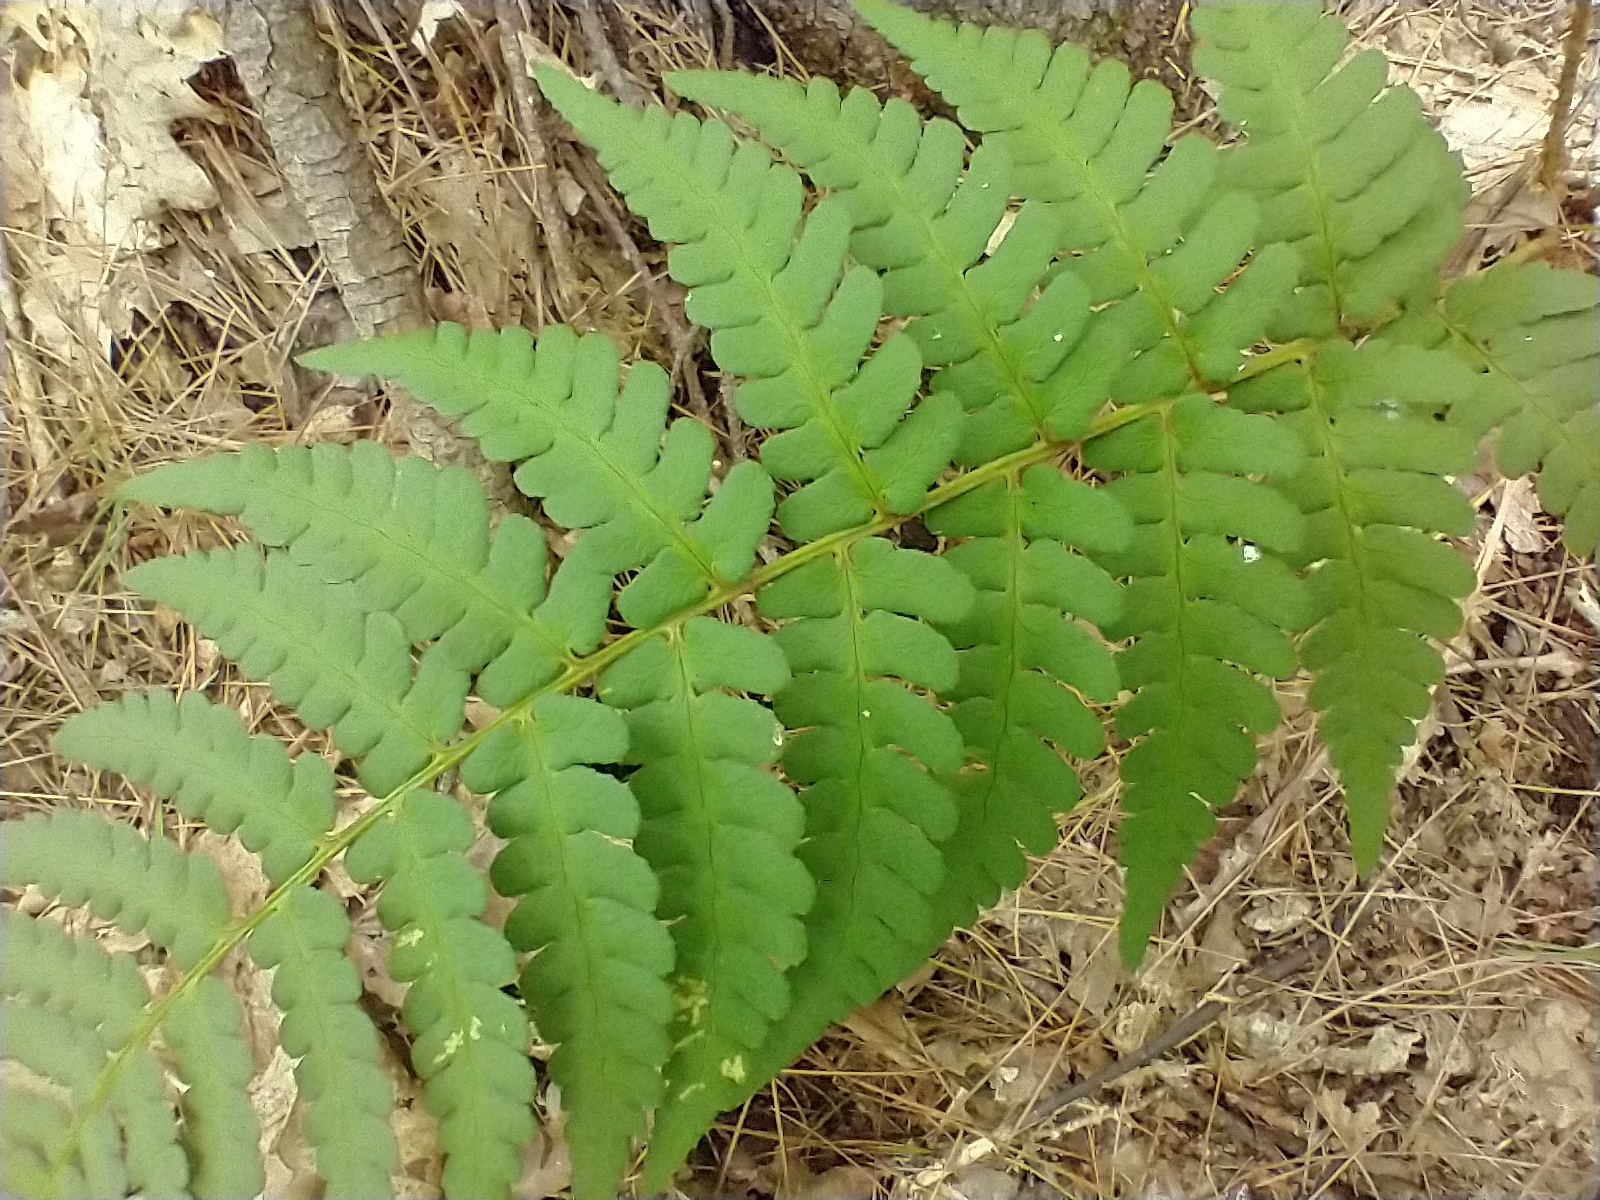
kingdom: Plantae
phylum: Tracheophyta
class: Polypodiopsida
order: Polypodiales
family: Dryopteridaceae
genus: Dryopteris
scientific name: Dryopteris marginalis
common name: Marginal wood fern
